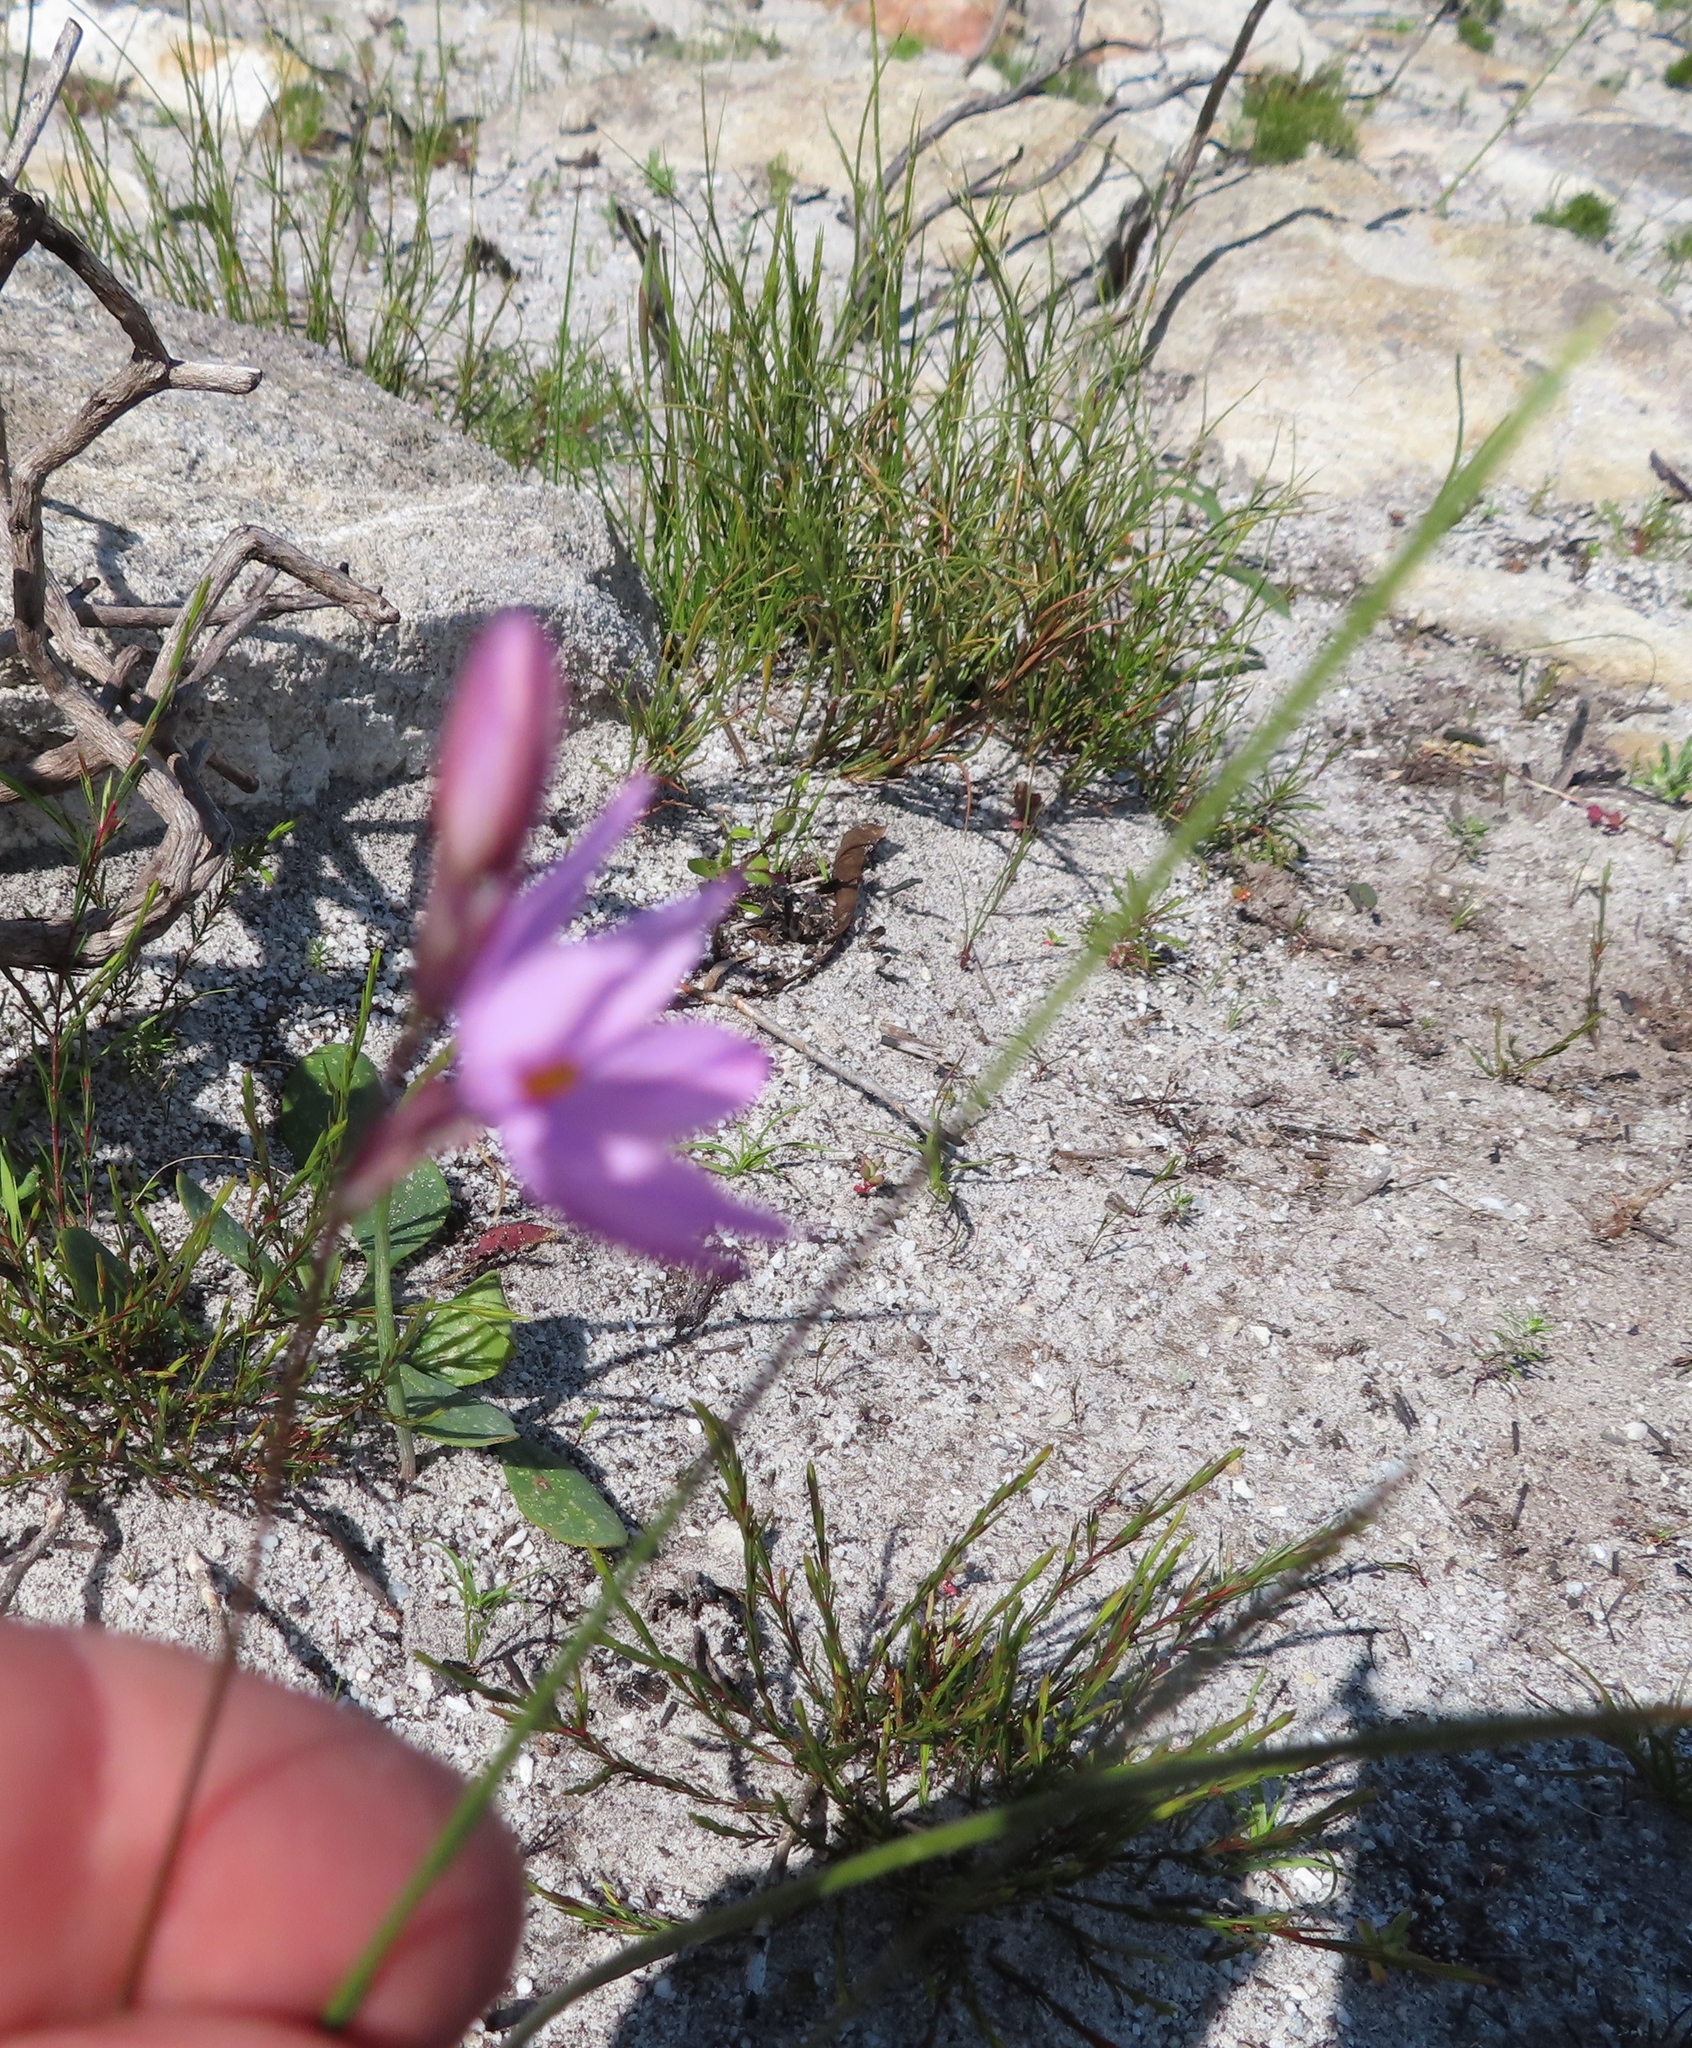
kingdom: Plantae
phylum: Tracheophyta
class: Liliopsida
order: Asparagales
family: Iridaceae
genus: Ixia
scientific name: Ixia micrandra
